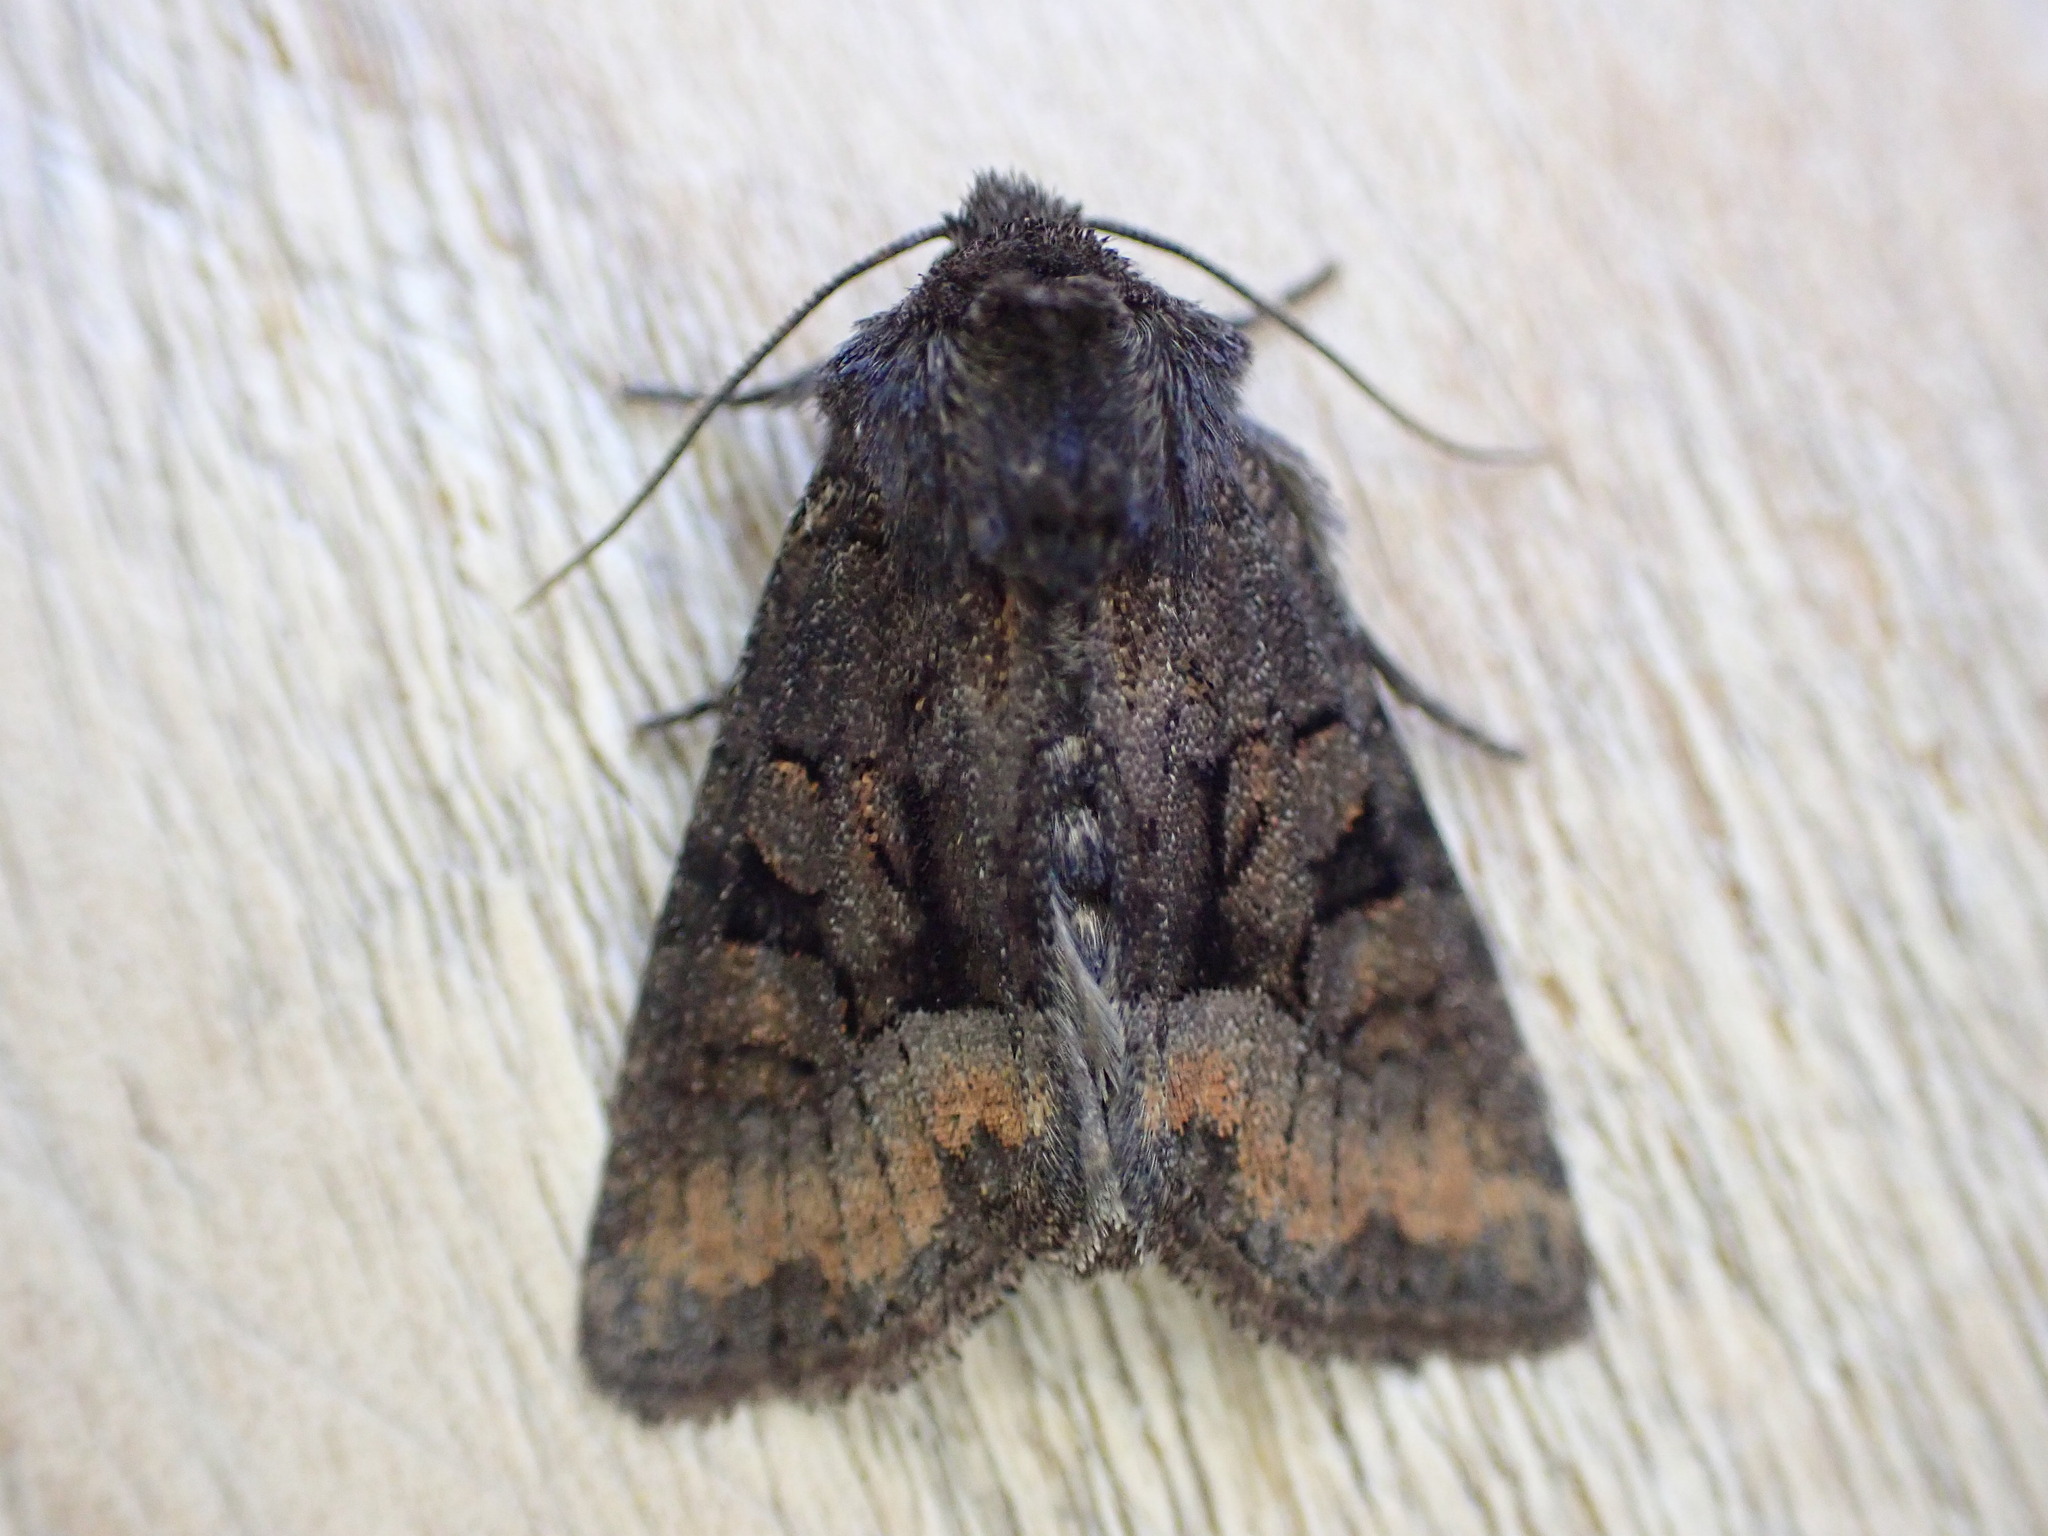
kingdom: Animalia
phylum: Arthropoda
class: Insecta
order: Lepidoptera
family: Noctuidae
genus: Oligia
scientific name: Oligia latruncula
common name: Tawny marbled minor
